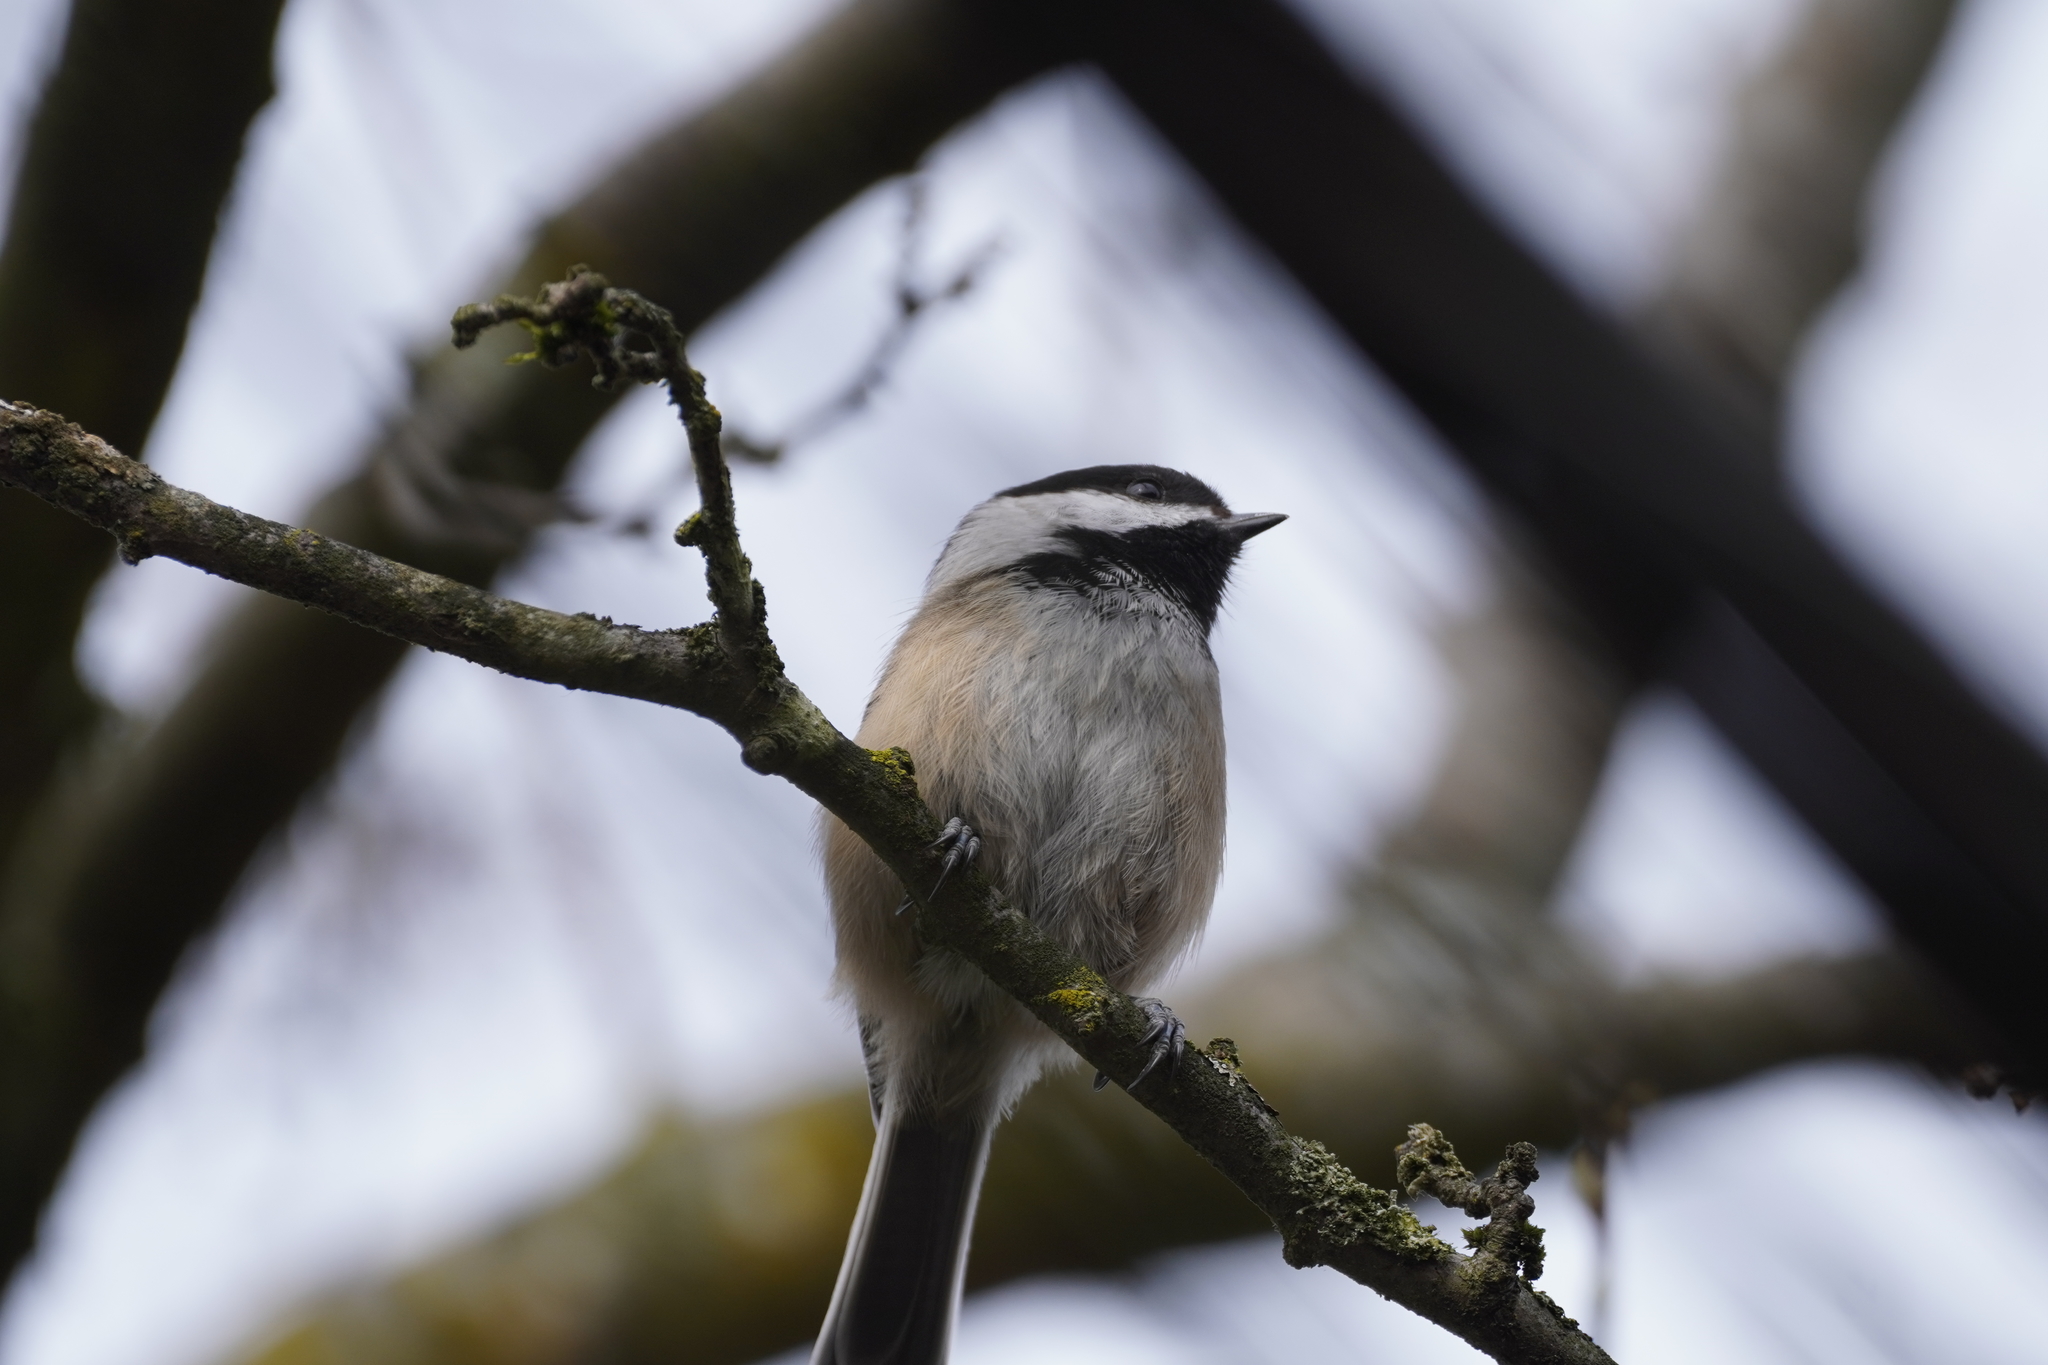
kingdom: Animalia
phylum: Chordata
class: Aves
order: Passeriformes
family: Paridae
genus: Poecile
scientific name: Poecile atricapillus
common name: Black-capped chickadee
